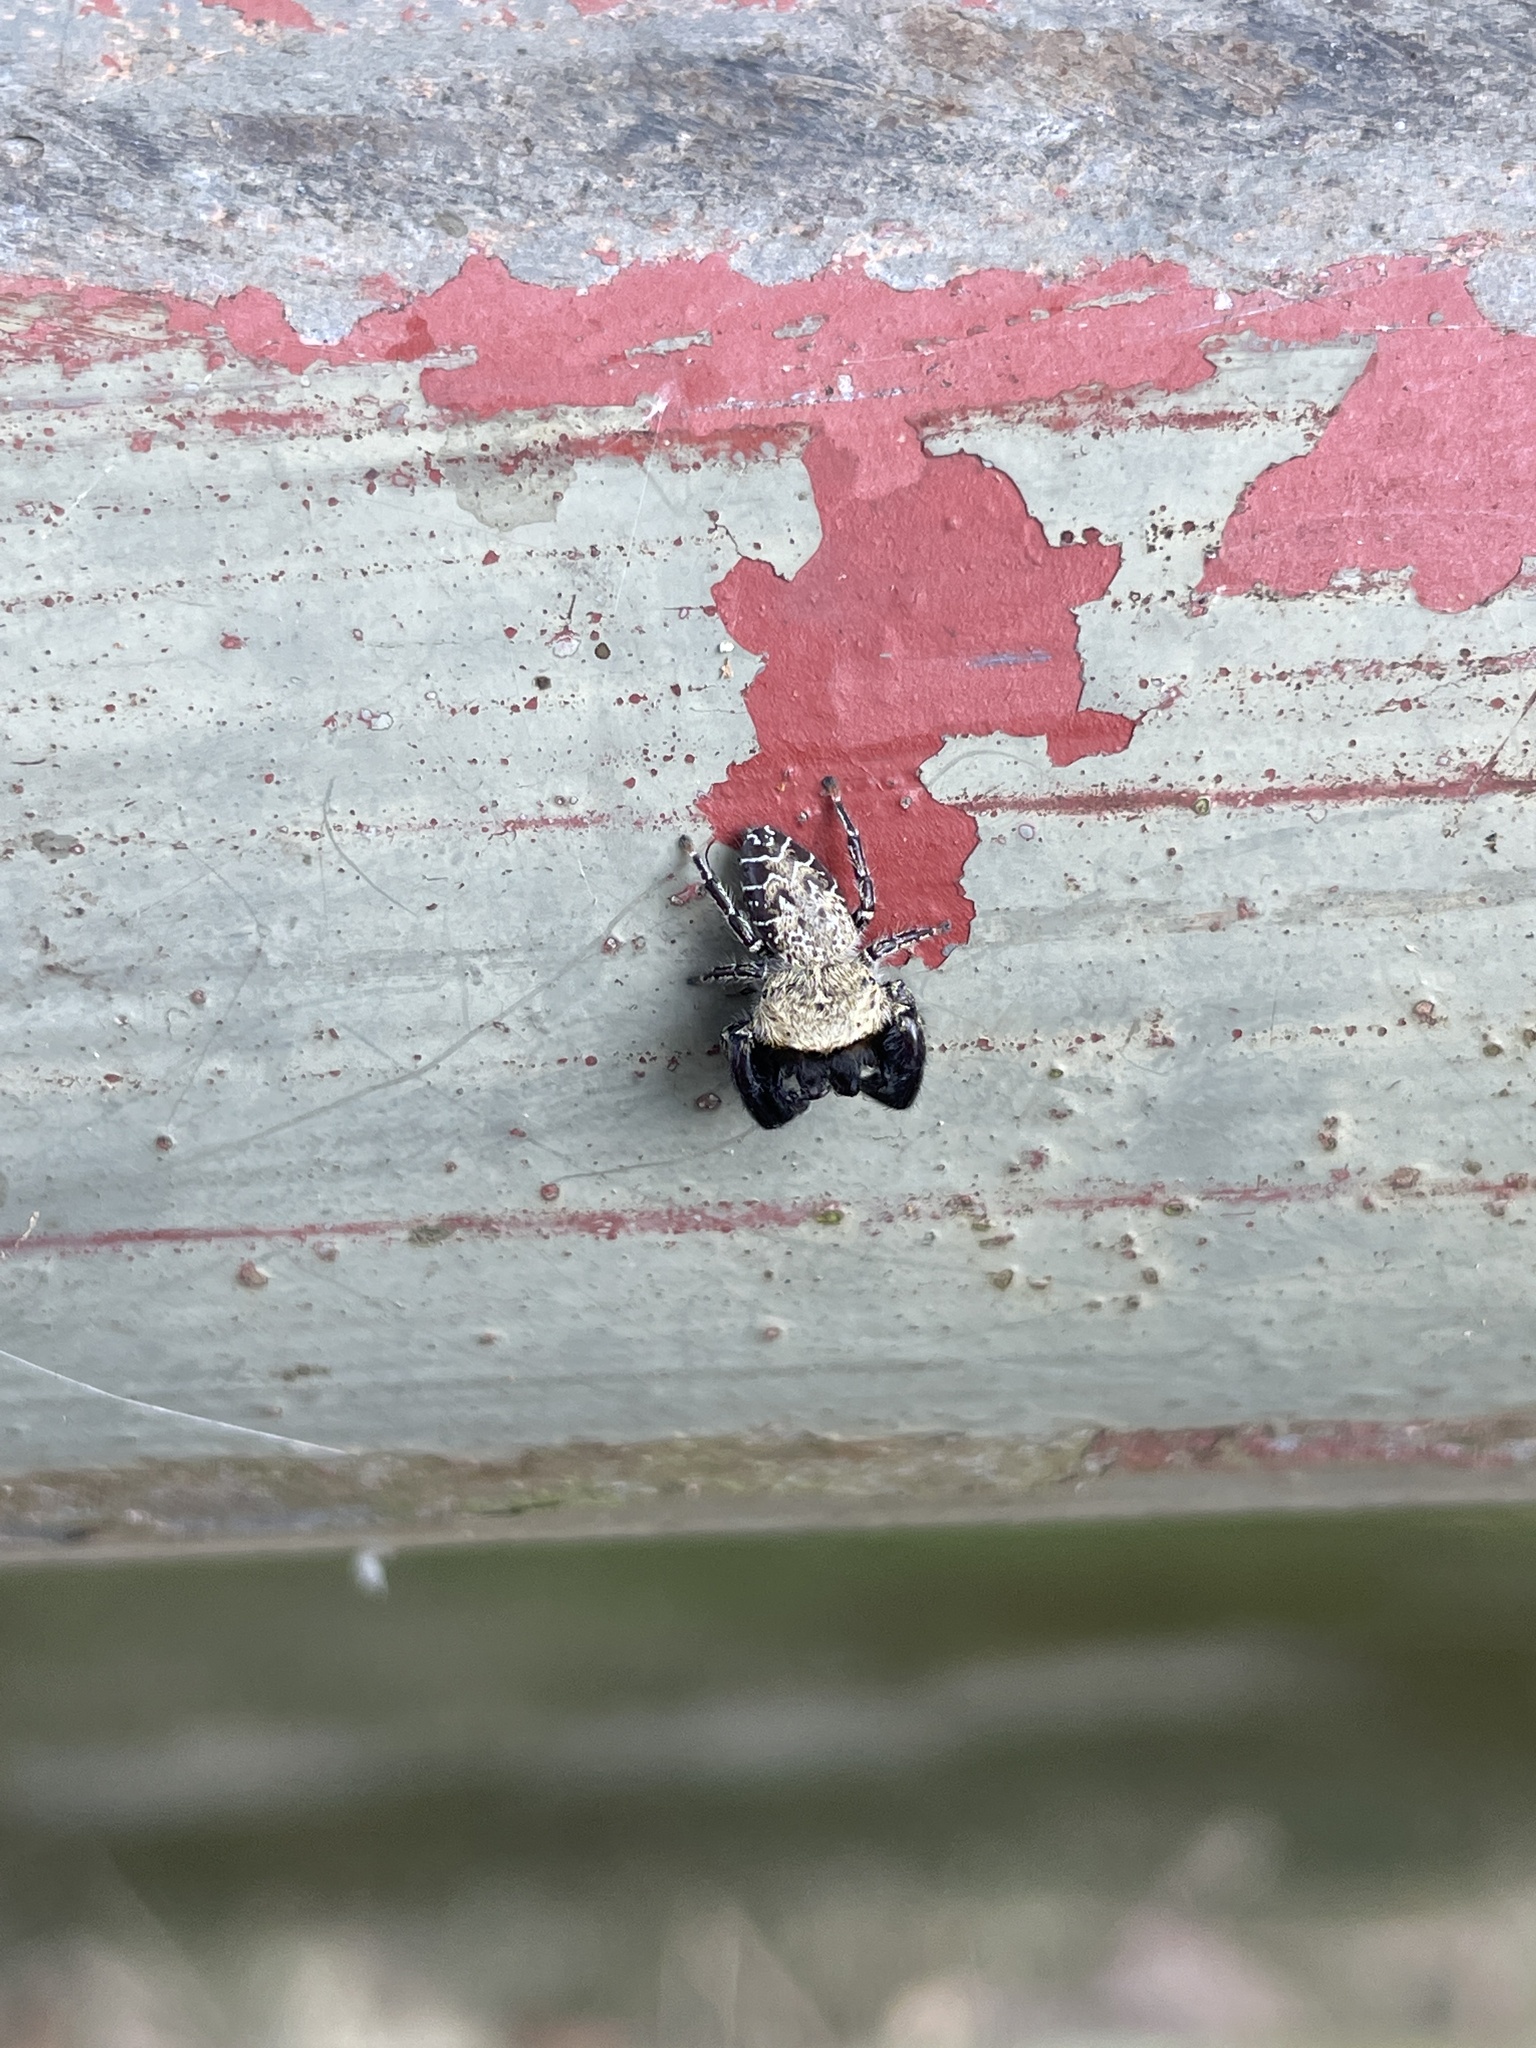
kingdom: Animalia
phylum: Arthropoda
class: Arachnida
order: Araneae
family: Salticidae
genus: Rhene
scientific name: Rhene rubrigera
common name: Jumping spider
